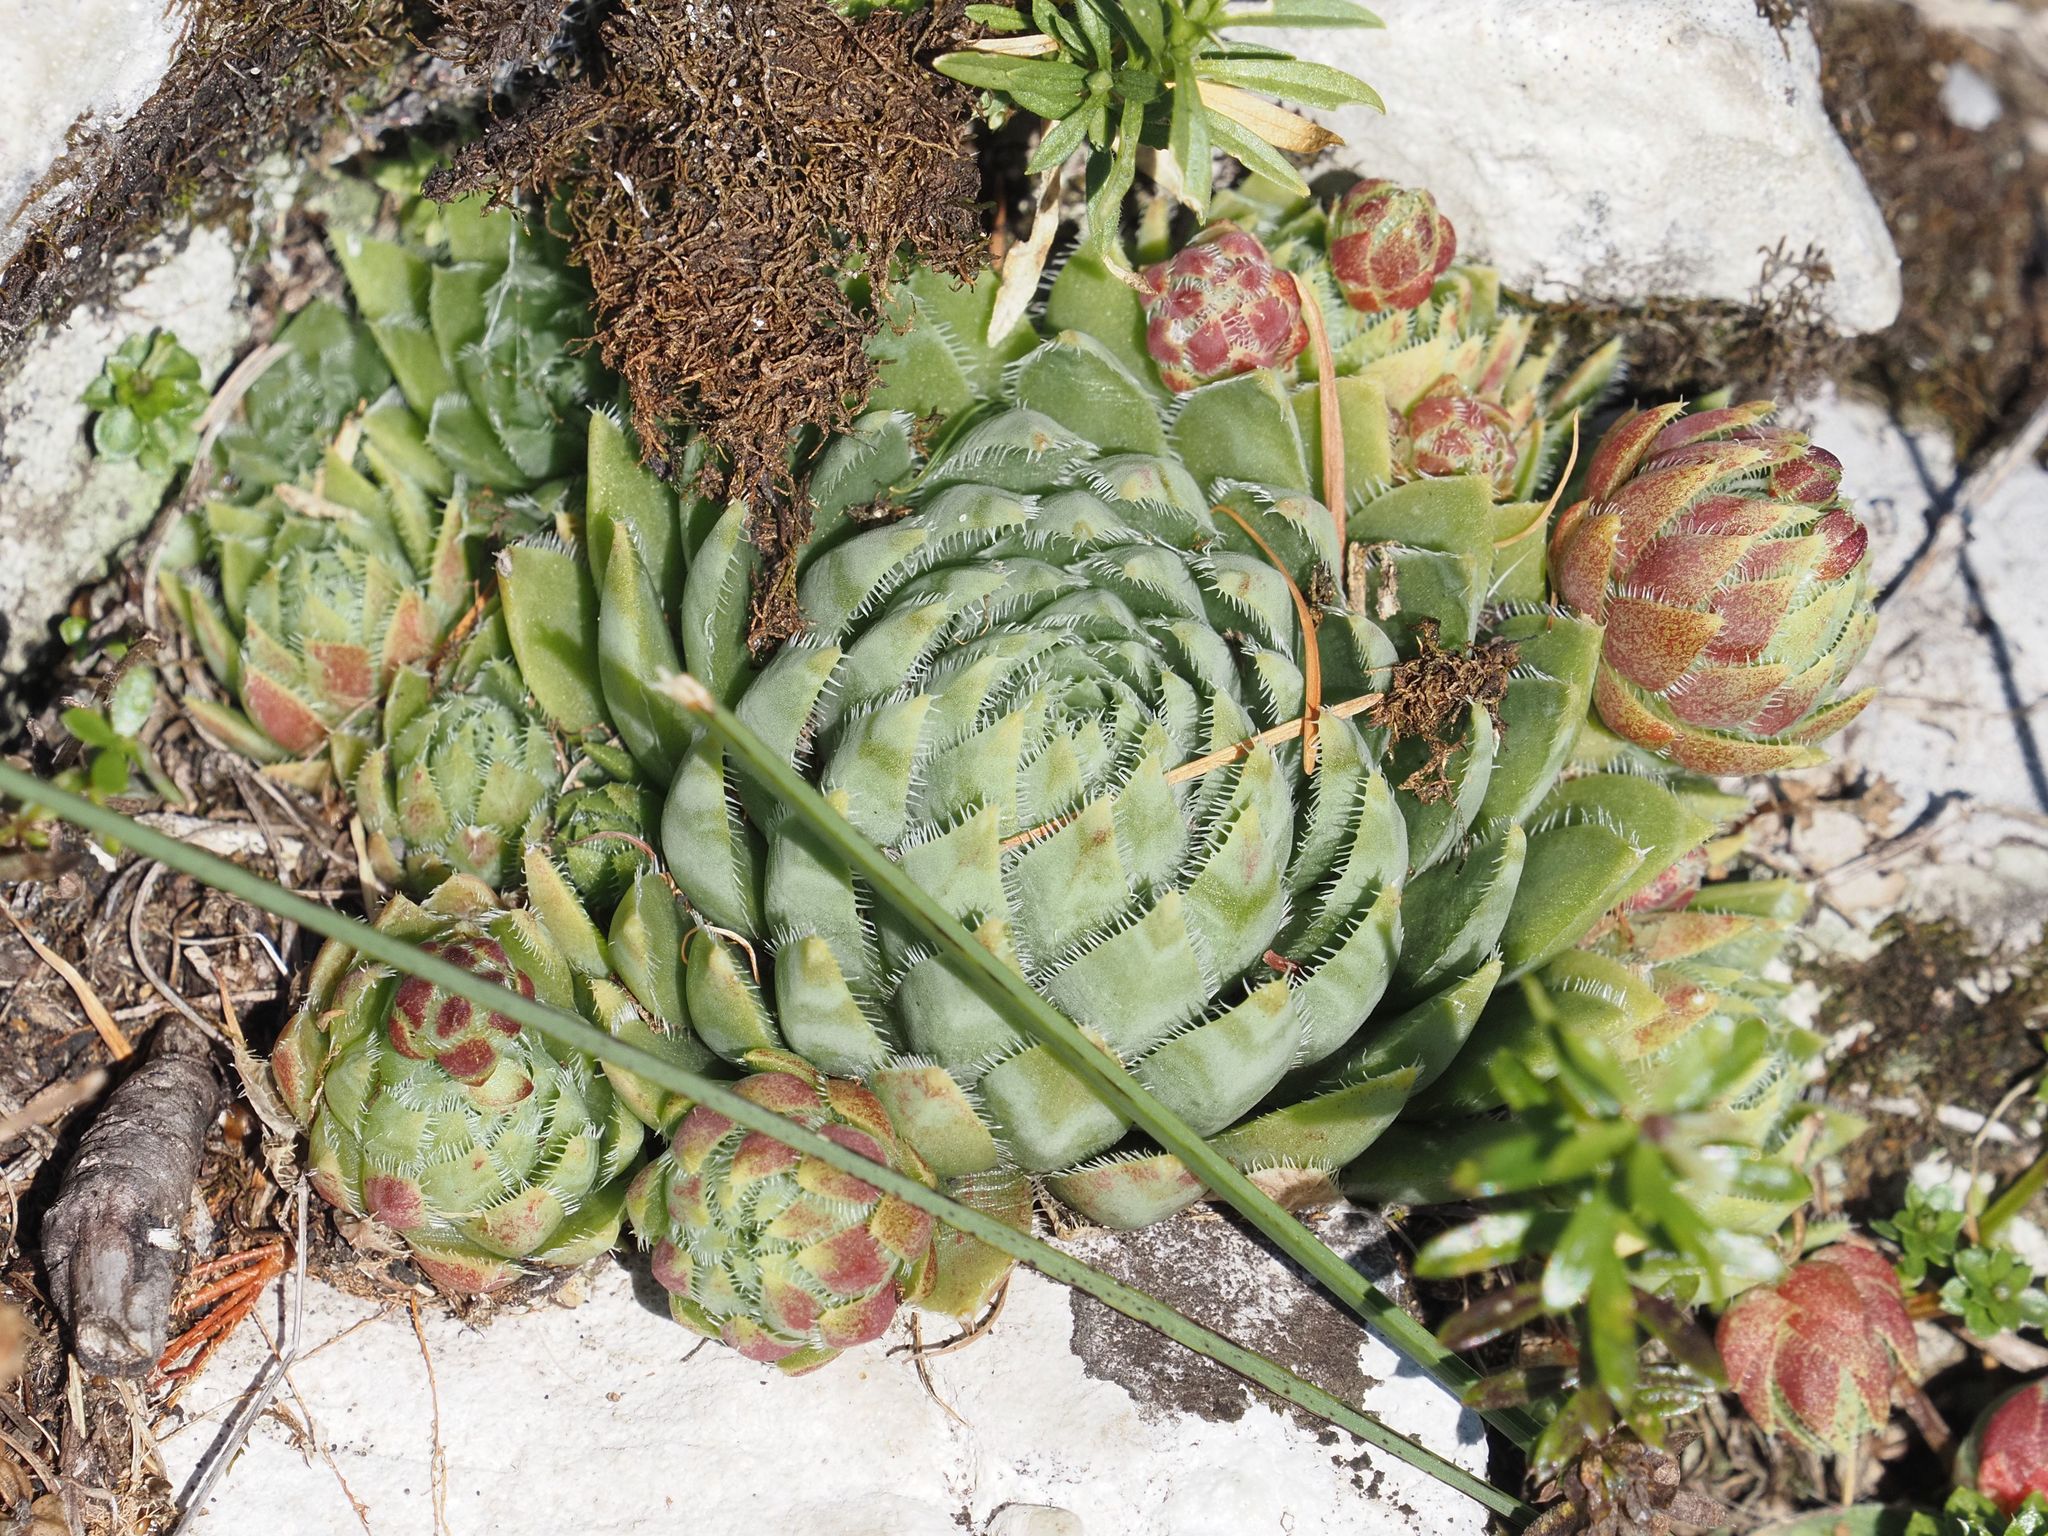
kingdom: Plantae
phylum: Tracheophyta
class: Magnoliopsida
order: Saxifragales
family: Crassulaceae
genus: Sempervivum
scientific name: Sempervivum globiferum
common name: Rolling hen-and-chicks
